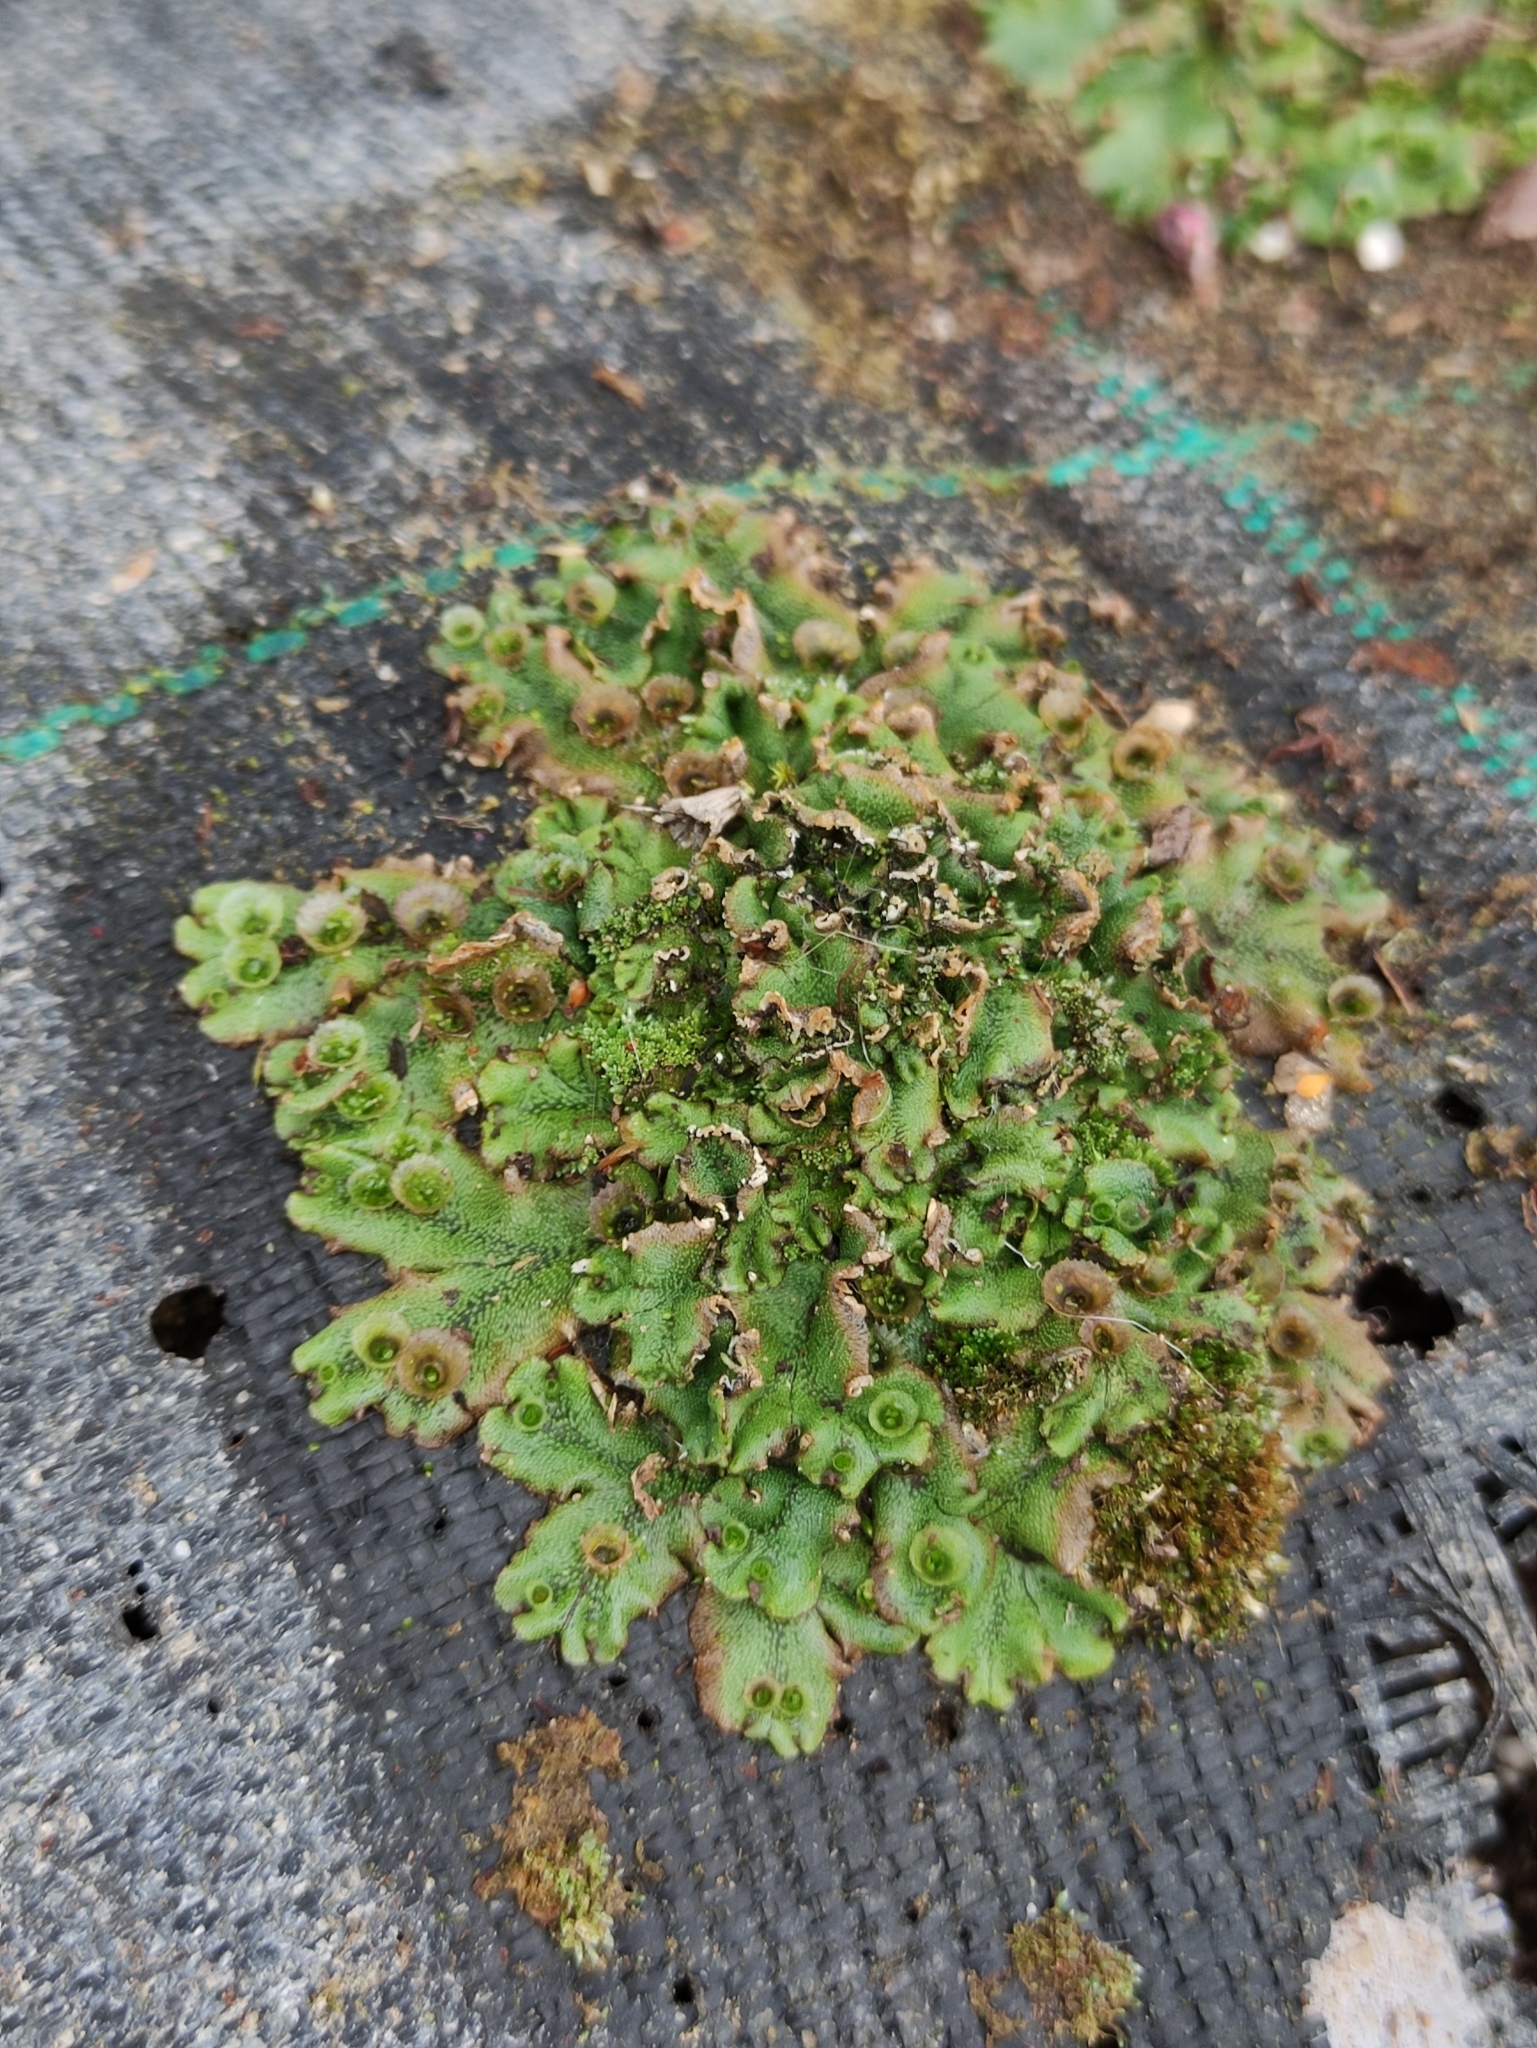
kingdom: Plantae
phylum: Marchantiophyta
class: Marchantiopsida
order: Marchantiales
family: Marchantiaceae
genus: Marchantia
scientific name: Marchantia polymorpha
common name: Common liverwort
